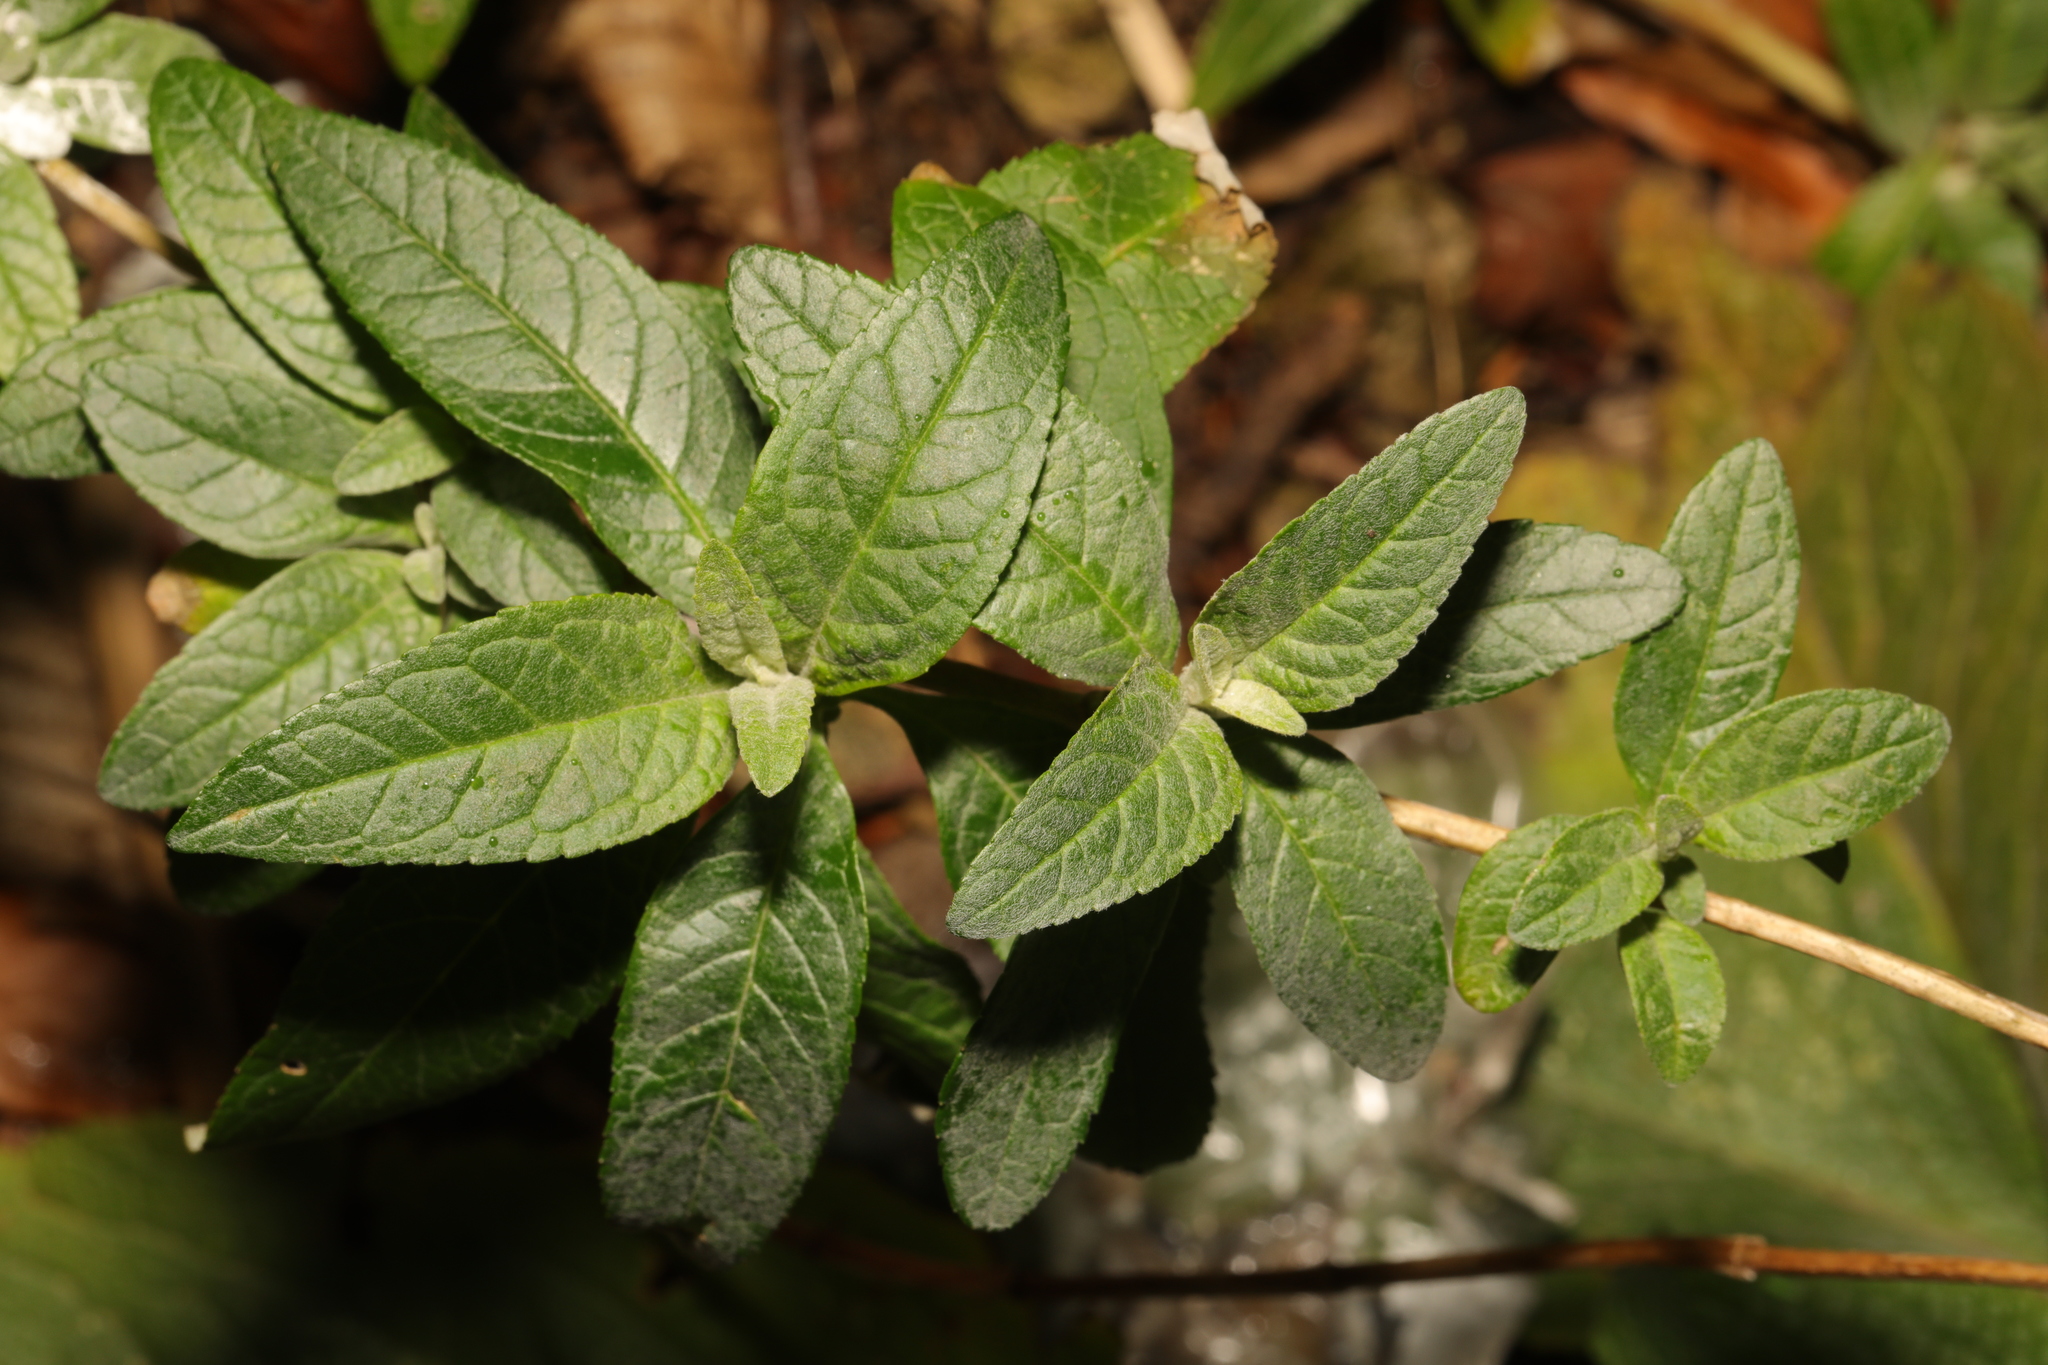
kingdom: Plantae
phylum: Tracheophyta
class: Magnoliopsida
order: Lamiales
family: Scrophulariaceae
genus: Buddleja
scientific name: Buddleja davidii
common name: Butterfly-bush
